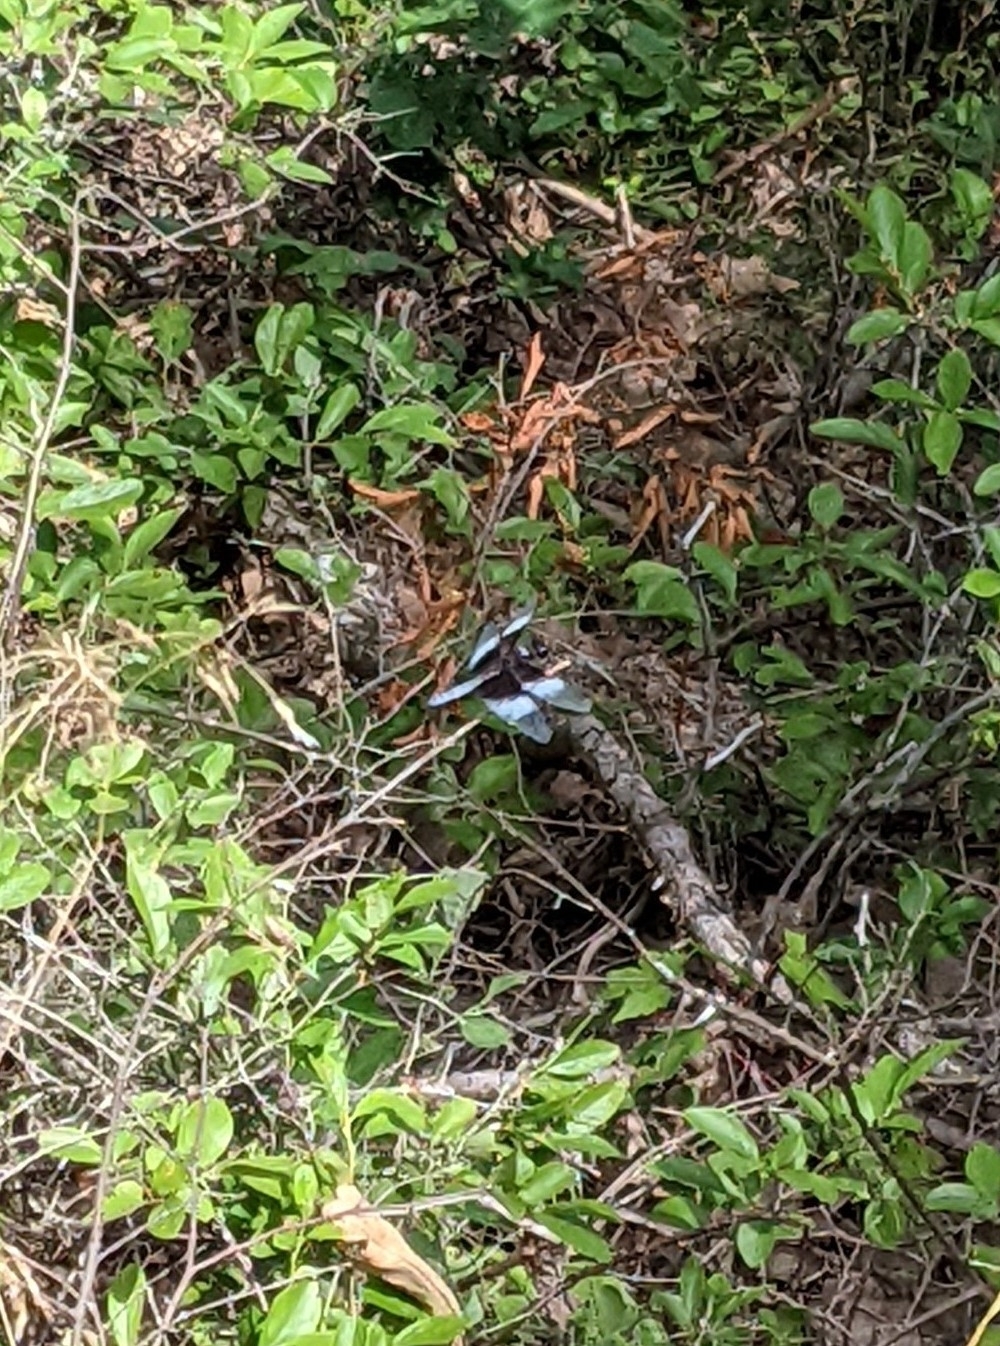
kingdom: Animalia
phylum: Arthropoda
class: Insecta
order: Odonata
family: Libellulidae
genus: Libellula
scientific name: Libellula luctuosa
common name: Widow skimmer
